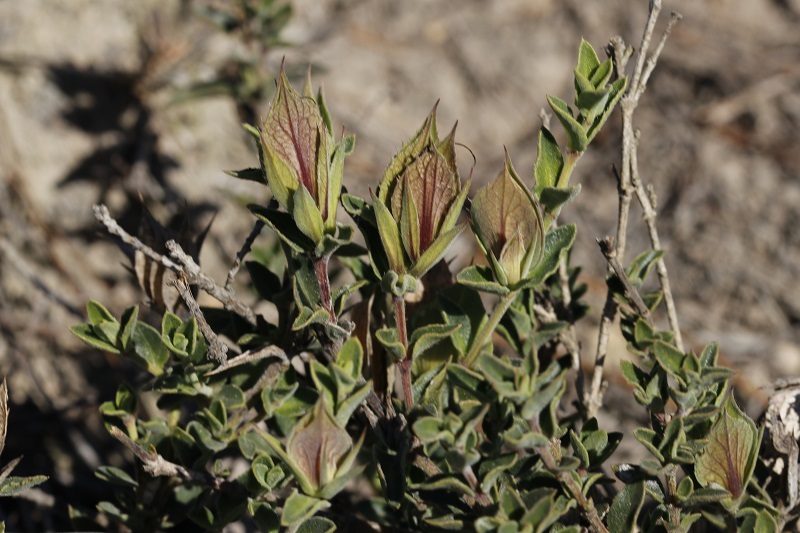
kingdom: Plantae
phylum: Tracheophyta
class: Magnoliopsida
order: Lamiales
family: Acanthaceae
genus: Barleria
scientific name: Barleria pungens
